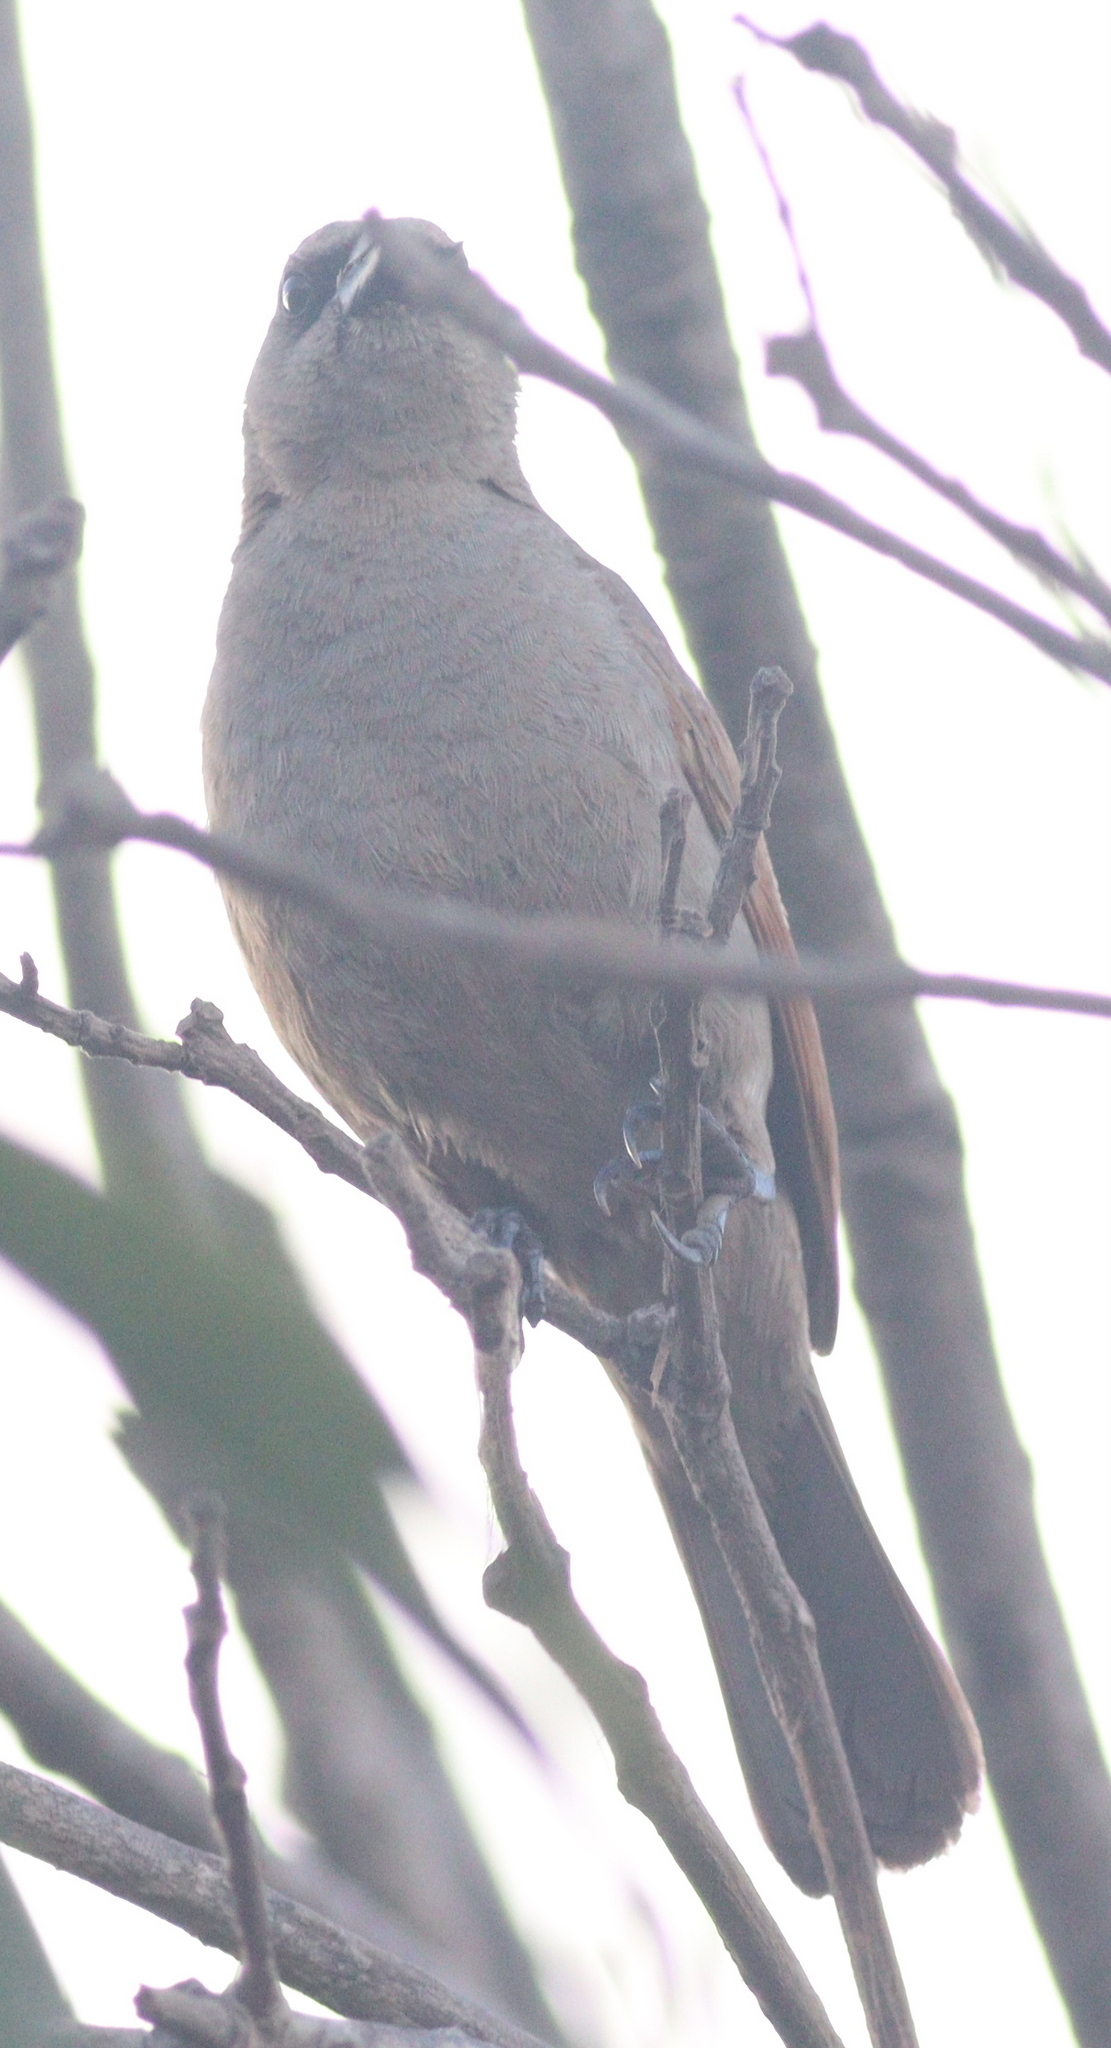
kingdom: Animalia
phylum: Chordata
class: Aves
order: Passeriformes
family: Icteridae
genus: Agelaioides
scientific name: Agelaioides badius
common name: Baywing
